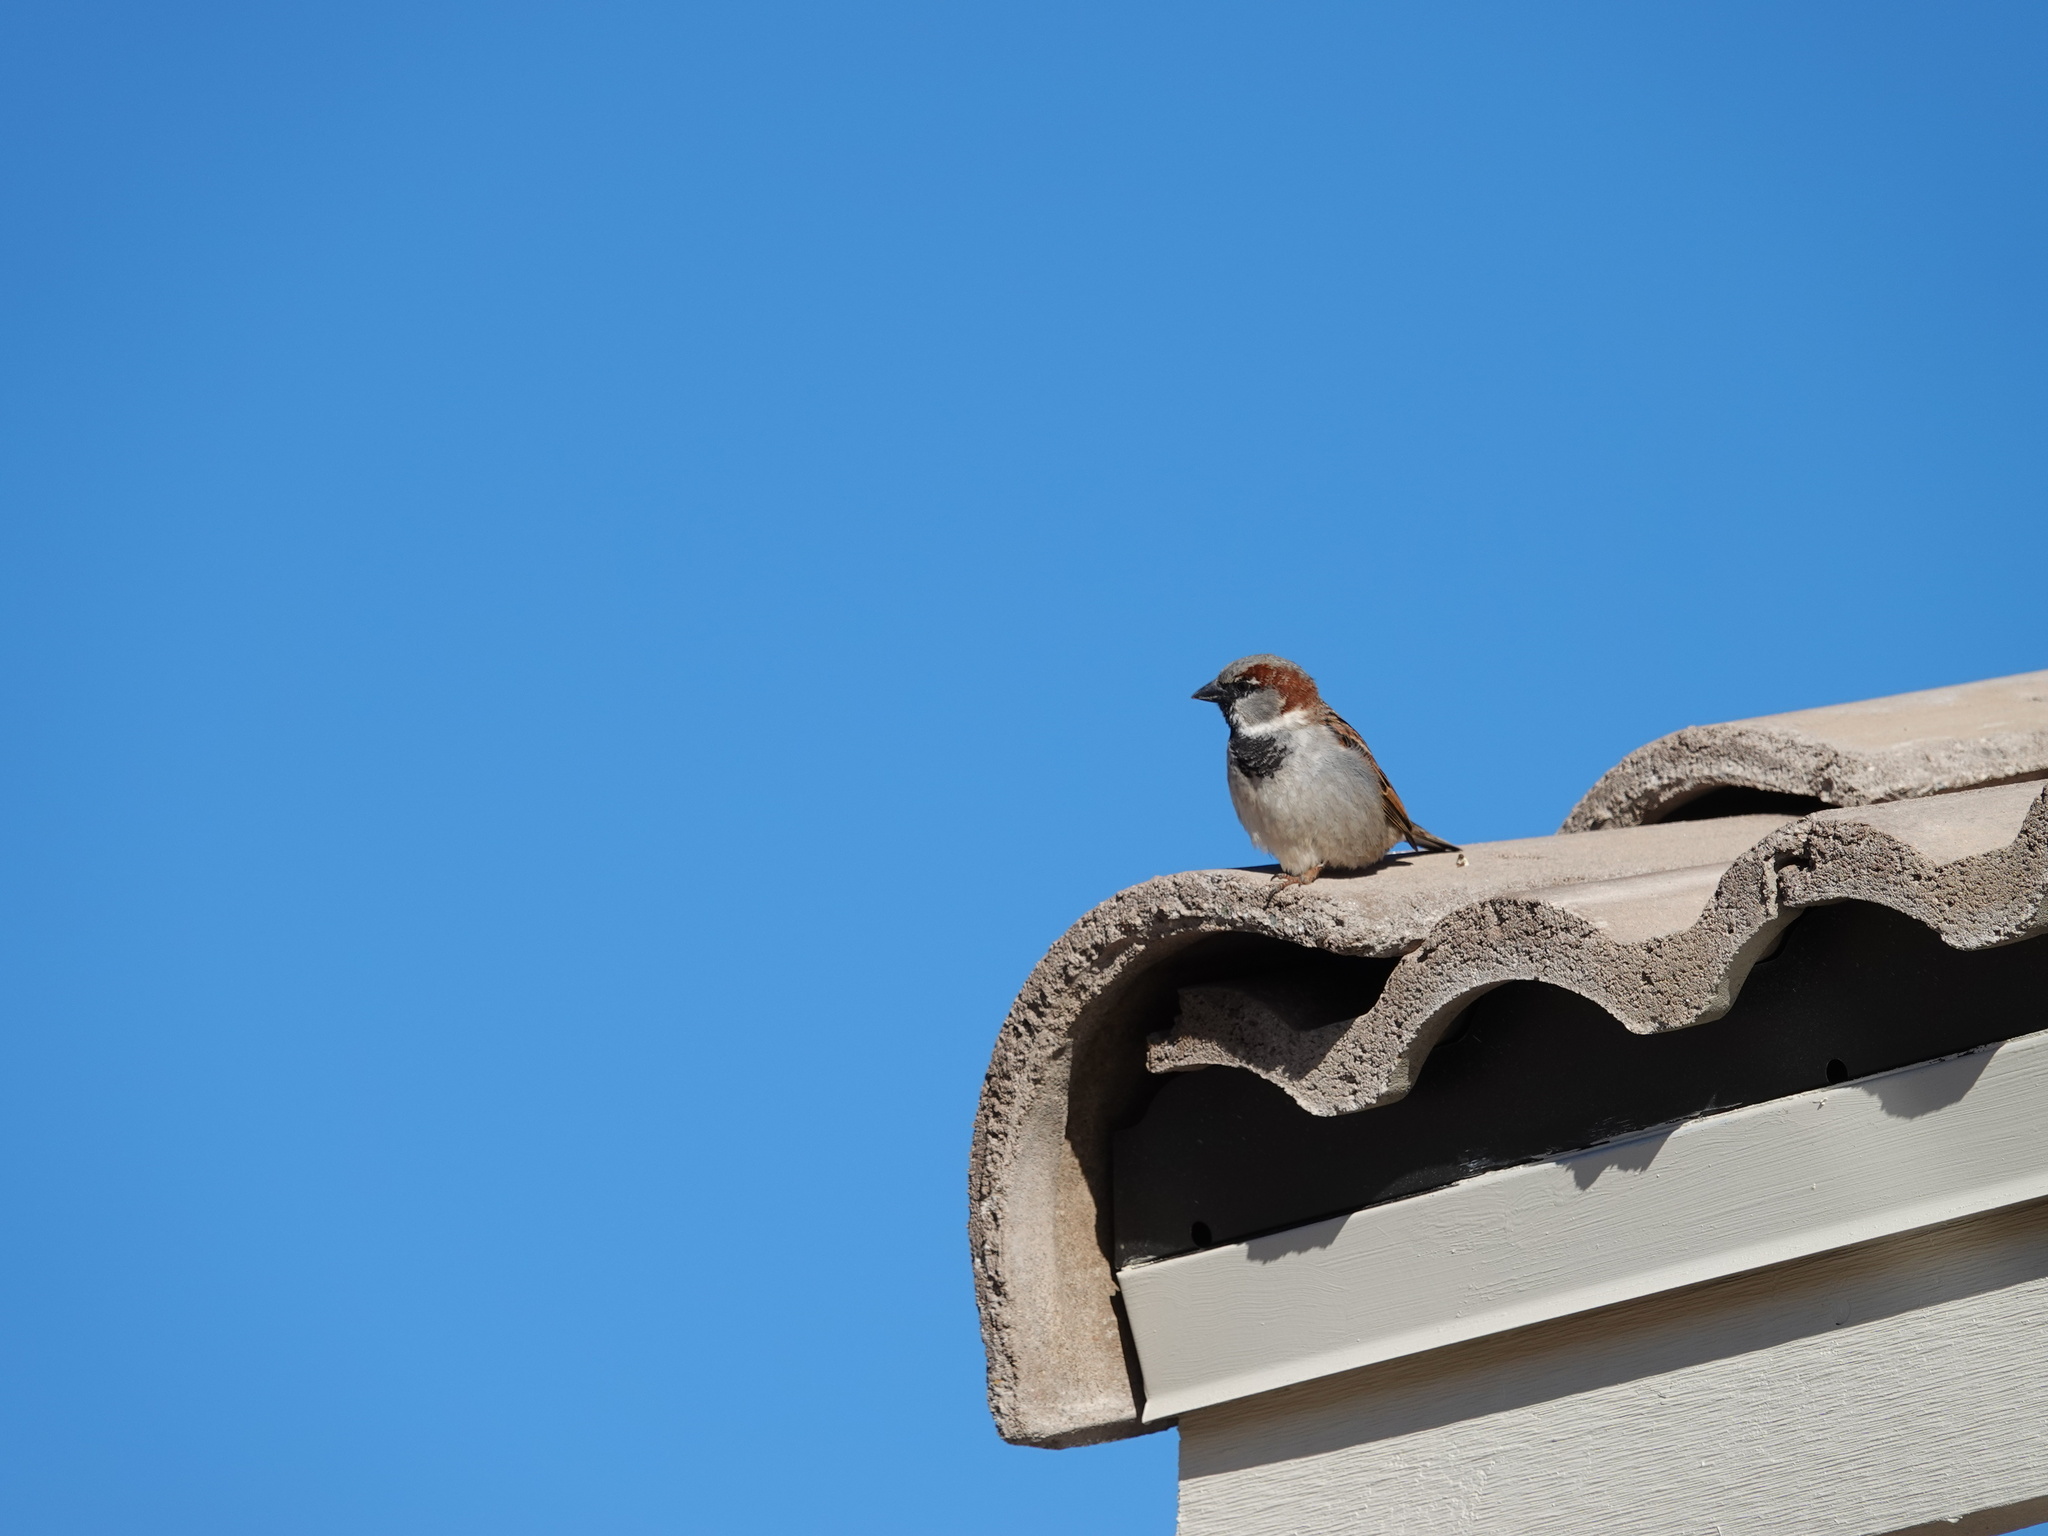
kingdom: Animalia
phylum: Chordata
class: Aves
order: Passeriformes
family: Passeridae
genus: Passer
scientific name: Passer domesticus
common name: House sparrow
